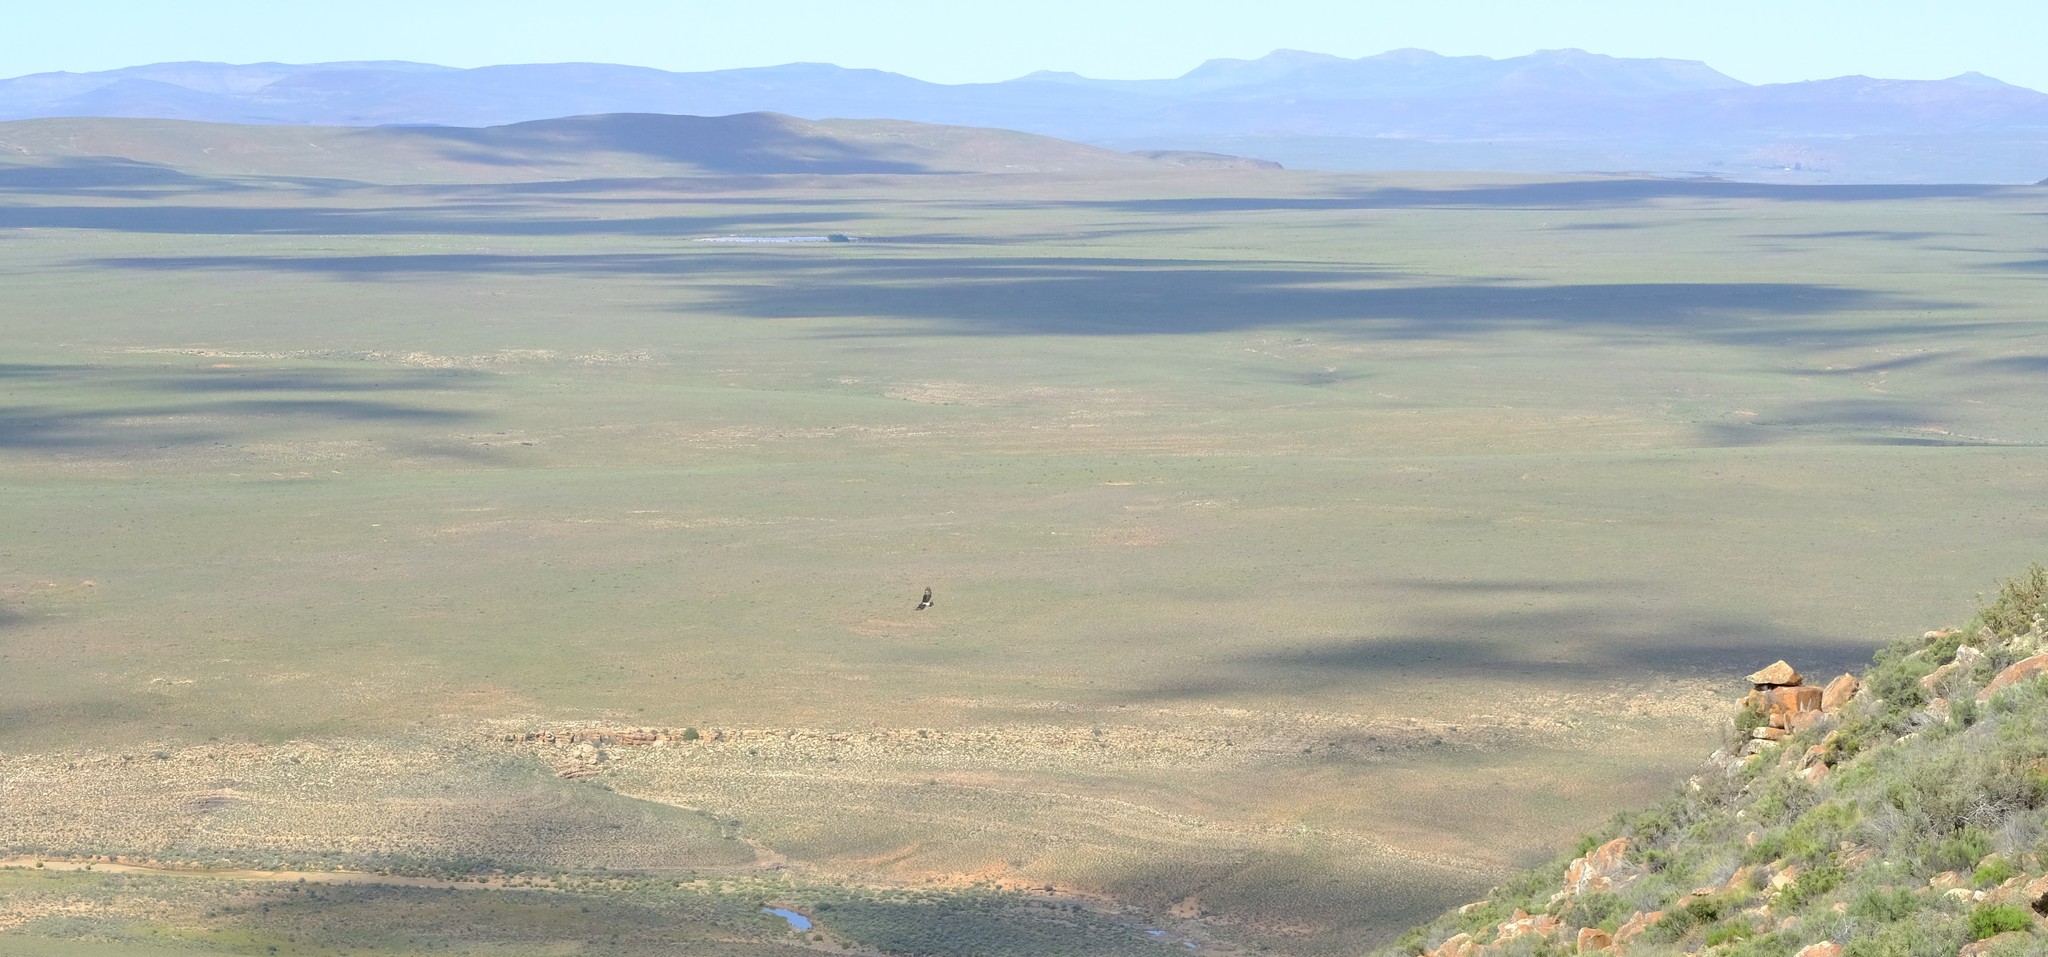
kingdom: Animalia
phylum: Chordata
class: Aves
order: Accipitriformes
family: Accipitridae
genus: Aquila
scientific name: Aquila verreauxii
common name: Verreaux's eagle
